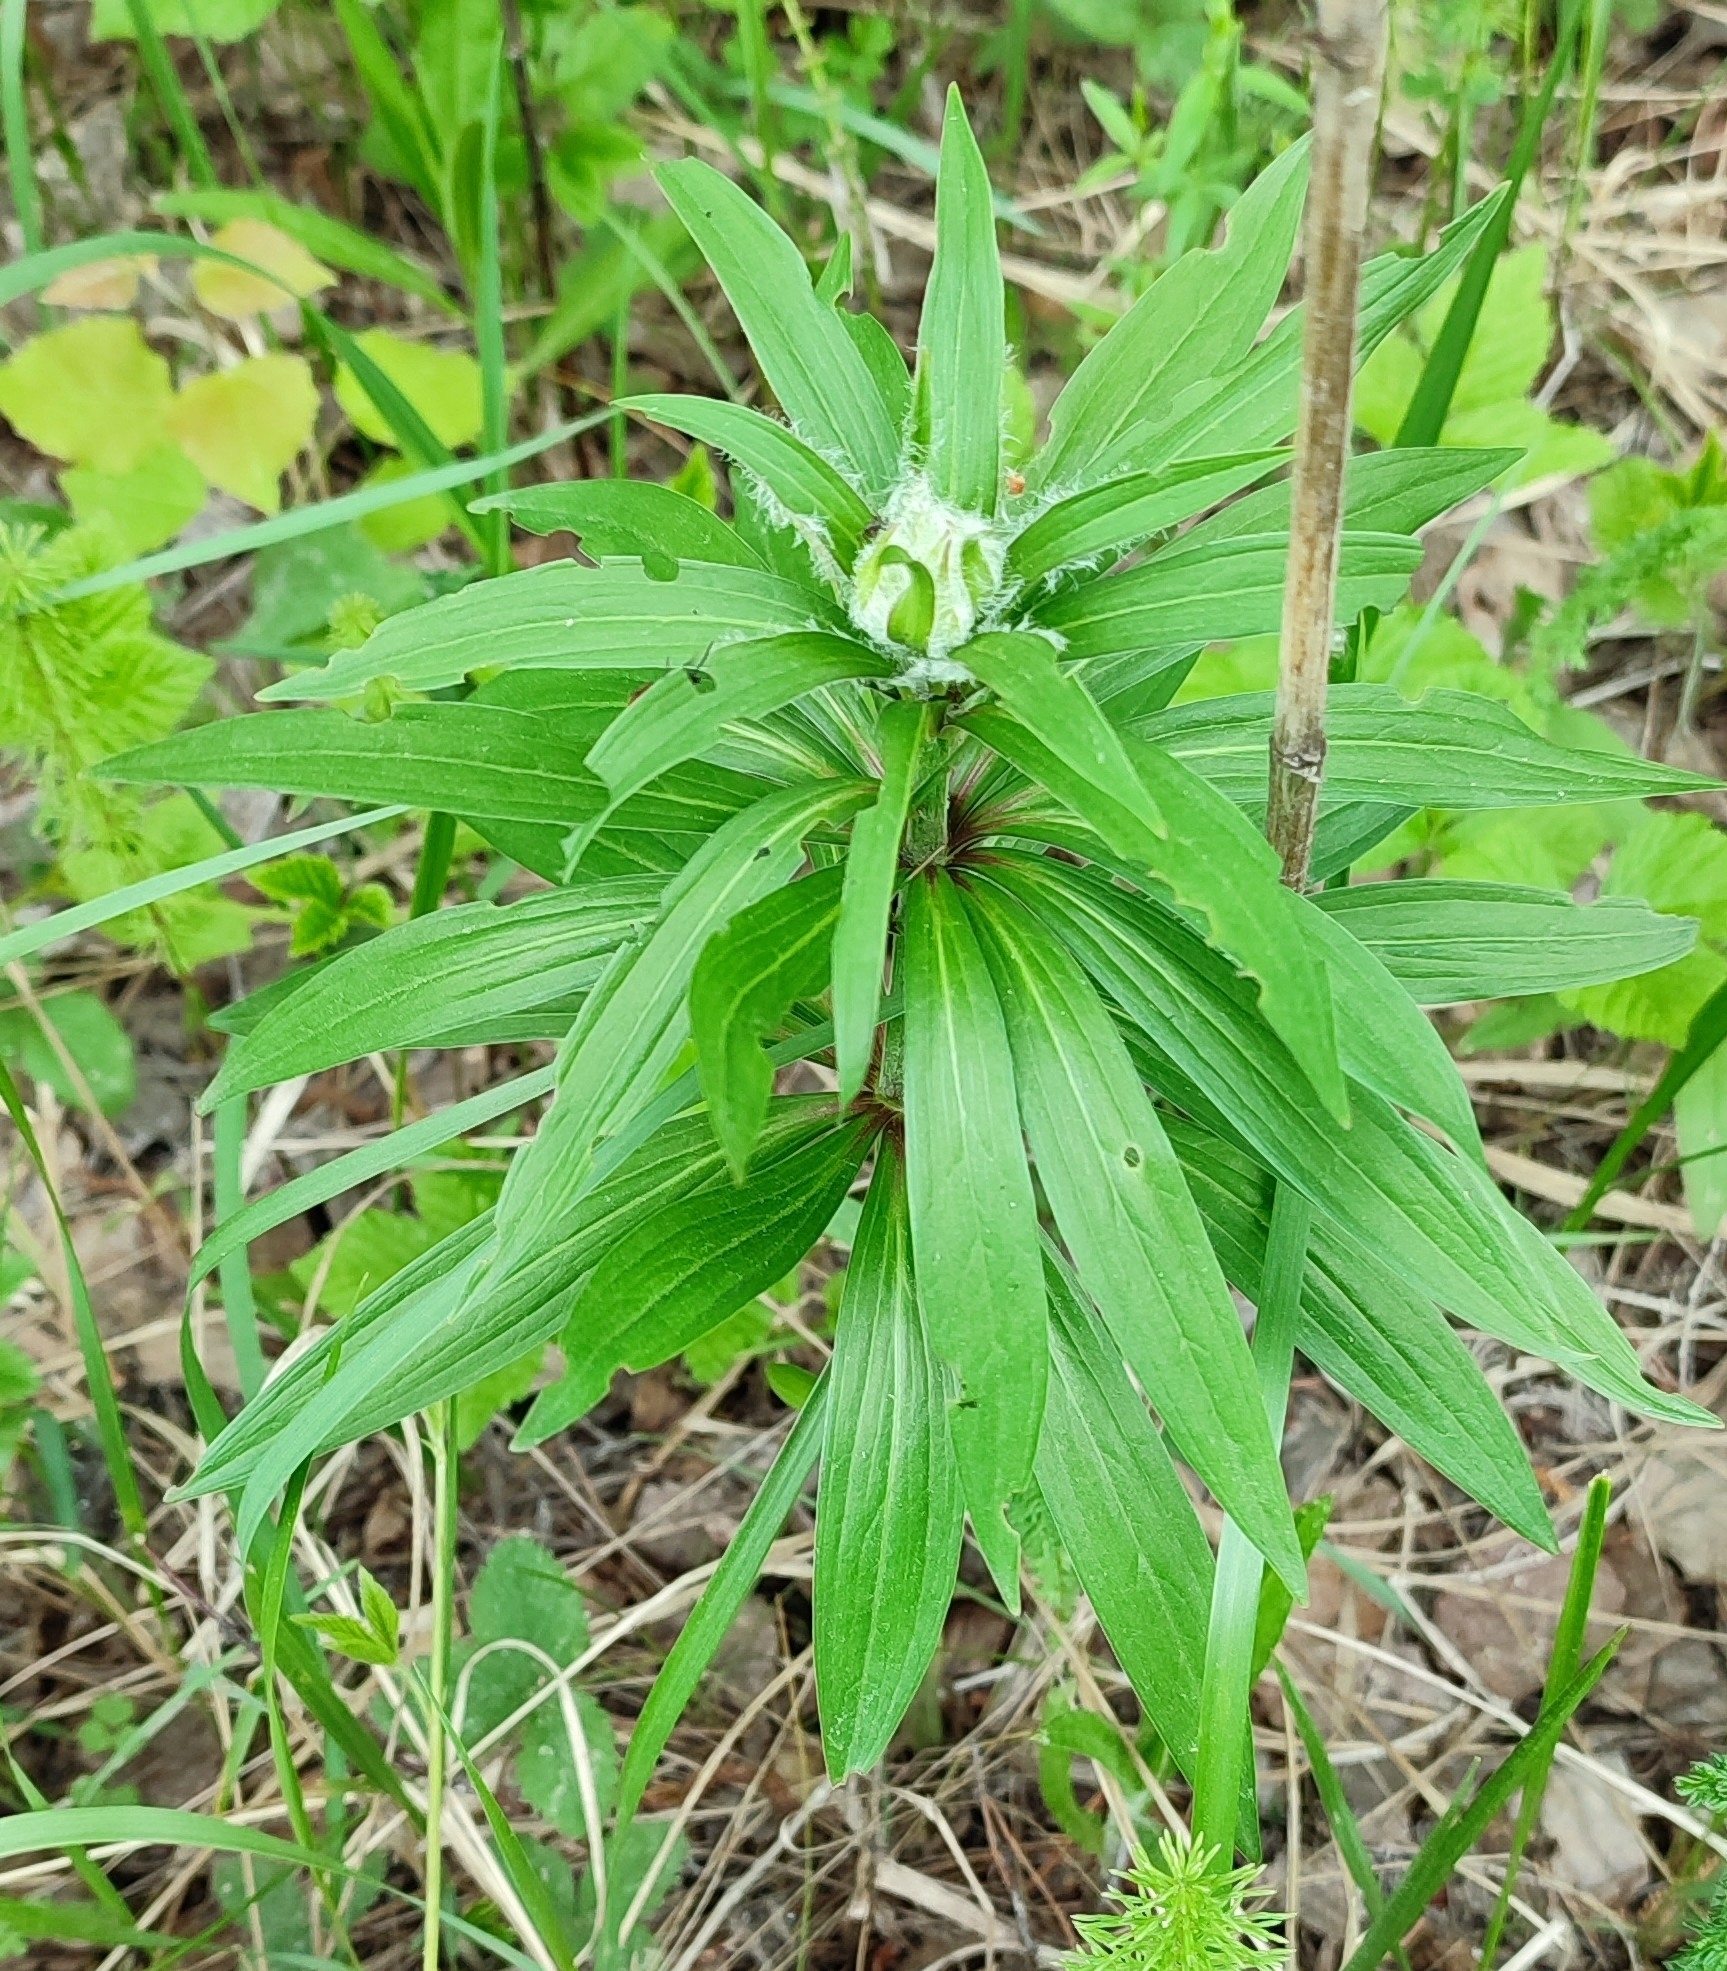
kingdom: Plantae
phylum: Tracheophyta
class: Liliopsida
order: Liliales
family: Liliaceae
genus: Lilium
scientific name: Lilium martagon
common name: Martagon lily
